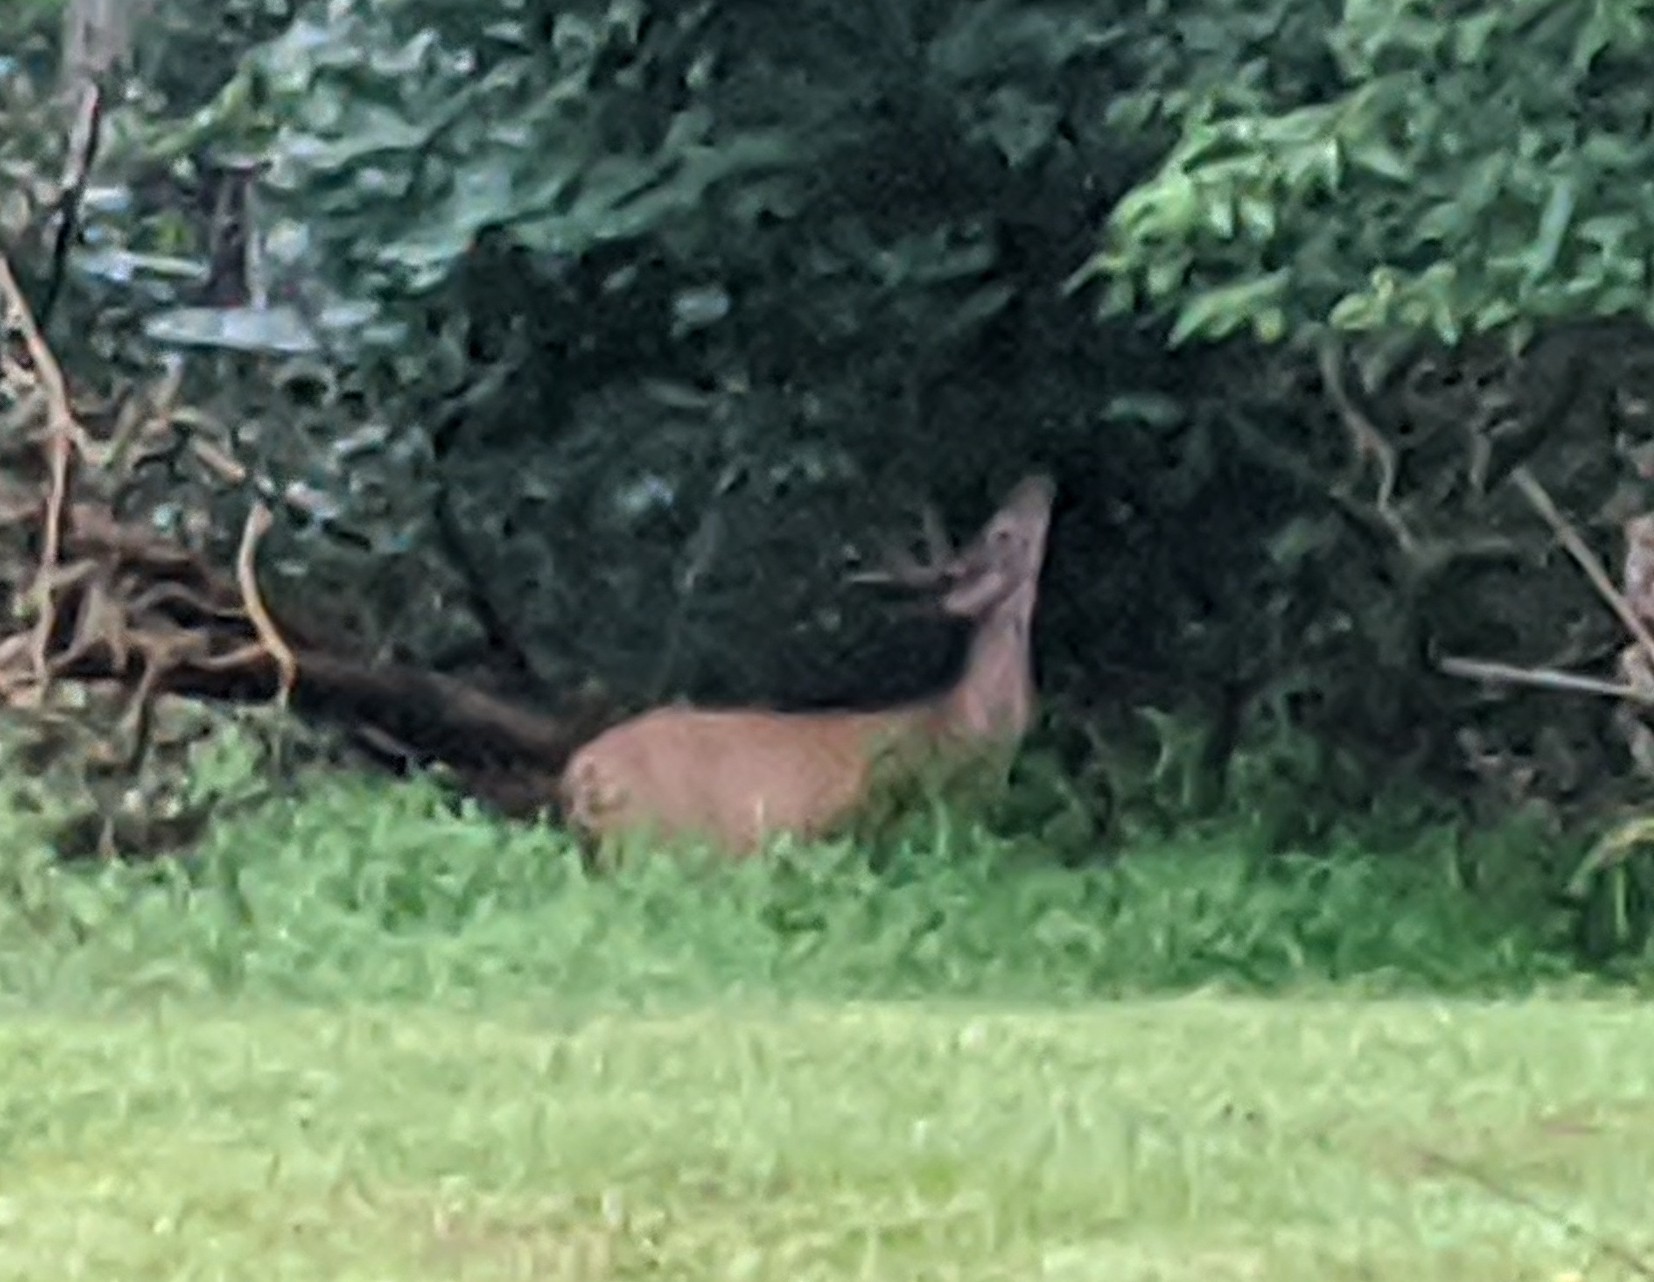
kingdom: Animalia
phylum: Chordata
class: Mammalia
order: Artiodactyla
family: Cervidae
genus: Odocoileus
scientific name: Odocoileus virginianus
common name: White-tailed deer
